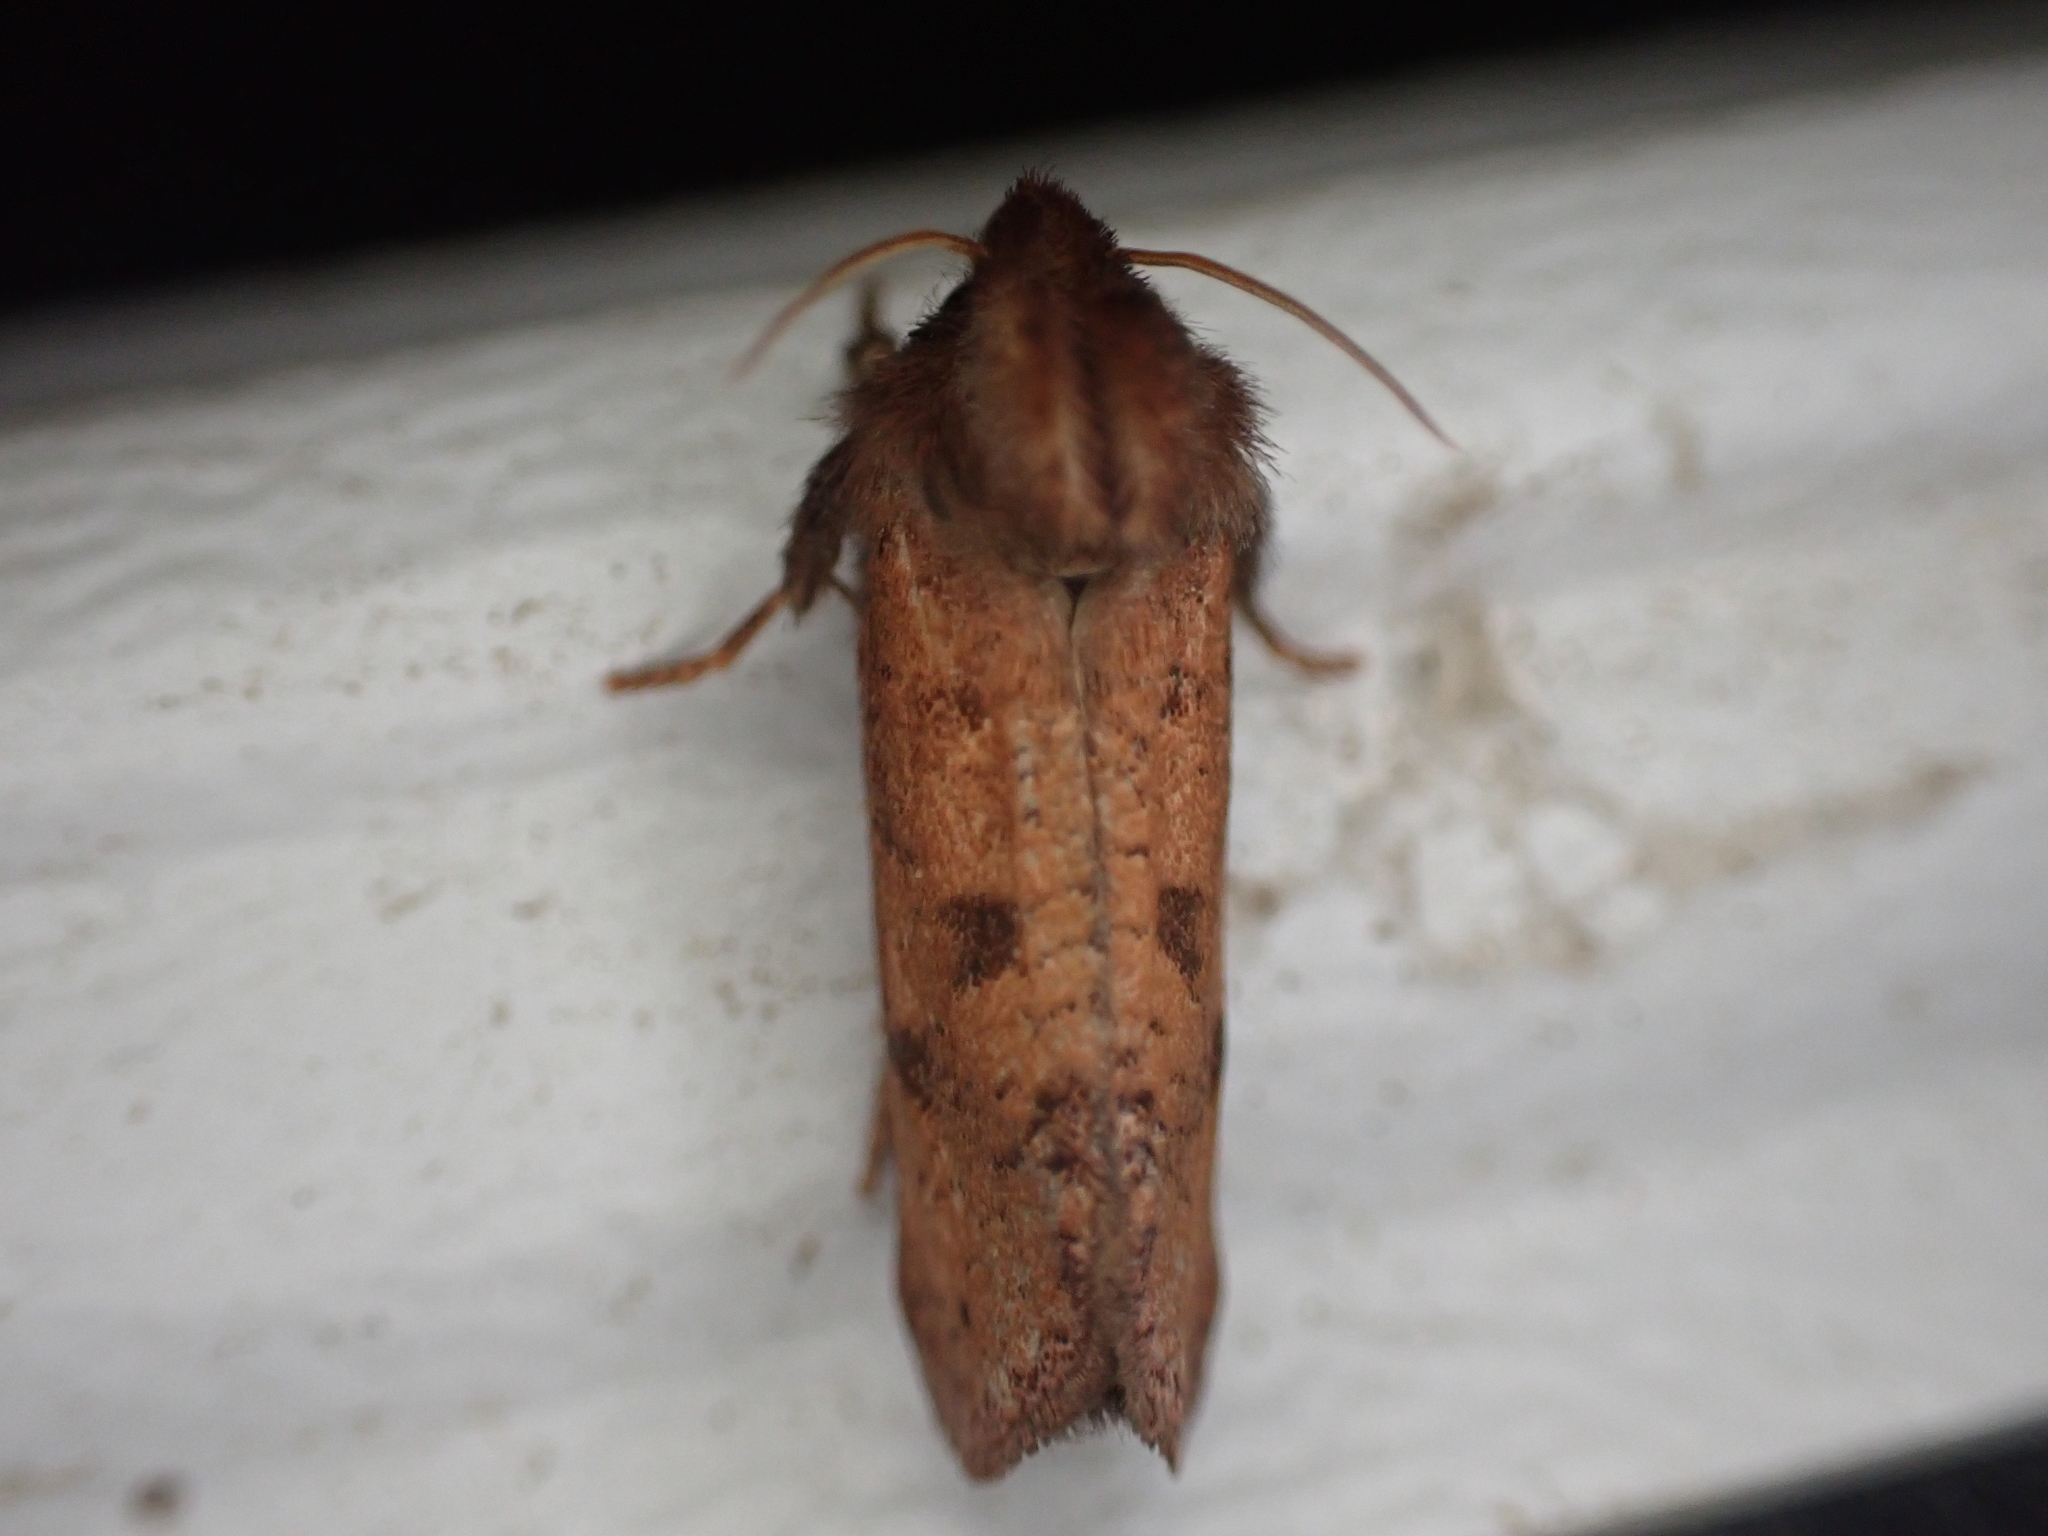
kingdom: Animalia
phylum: Arthropoda
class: Insecta
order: Lepidoptera
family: Tineidae
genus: Acrolophus
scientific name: Acrolophus plumifrontella
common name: Eastern grass tubeworm moth
